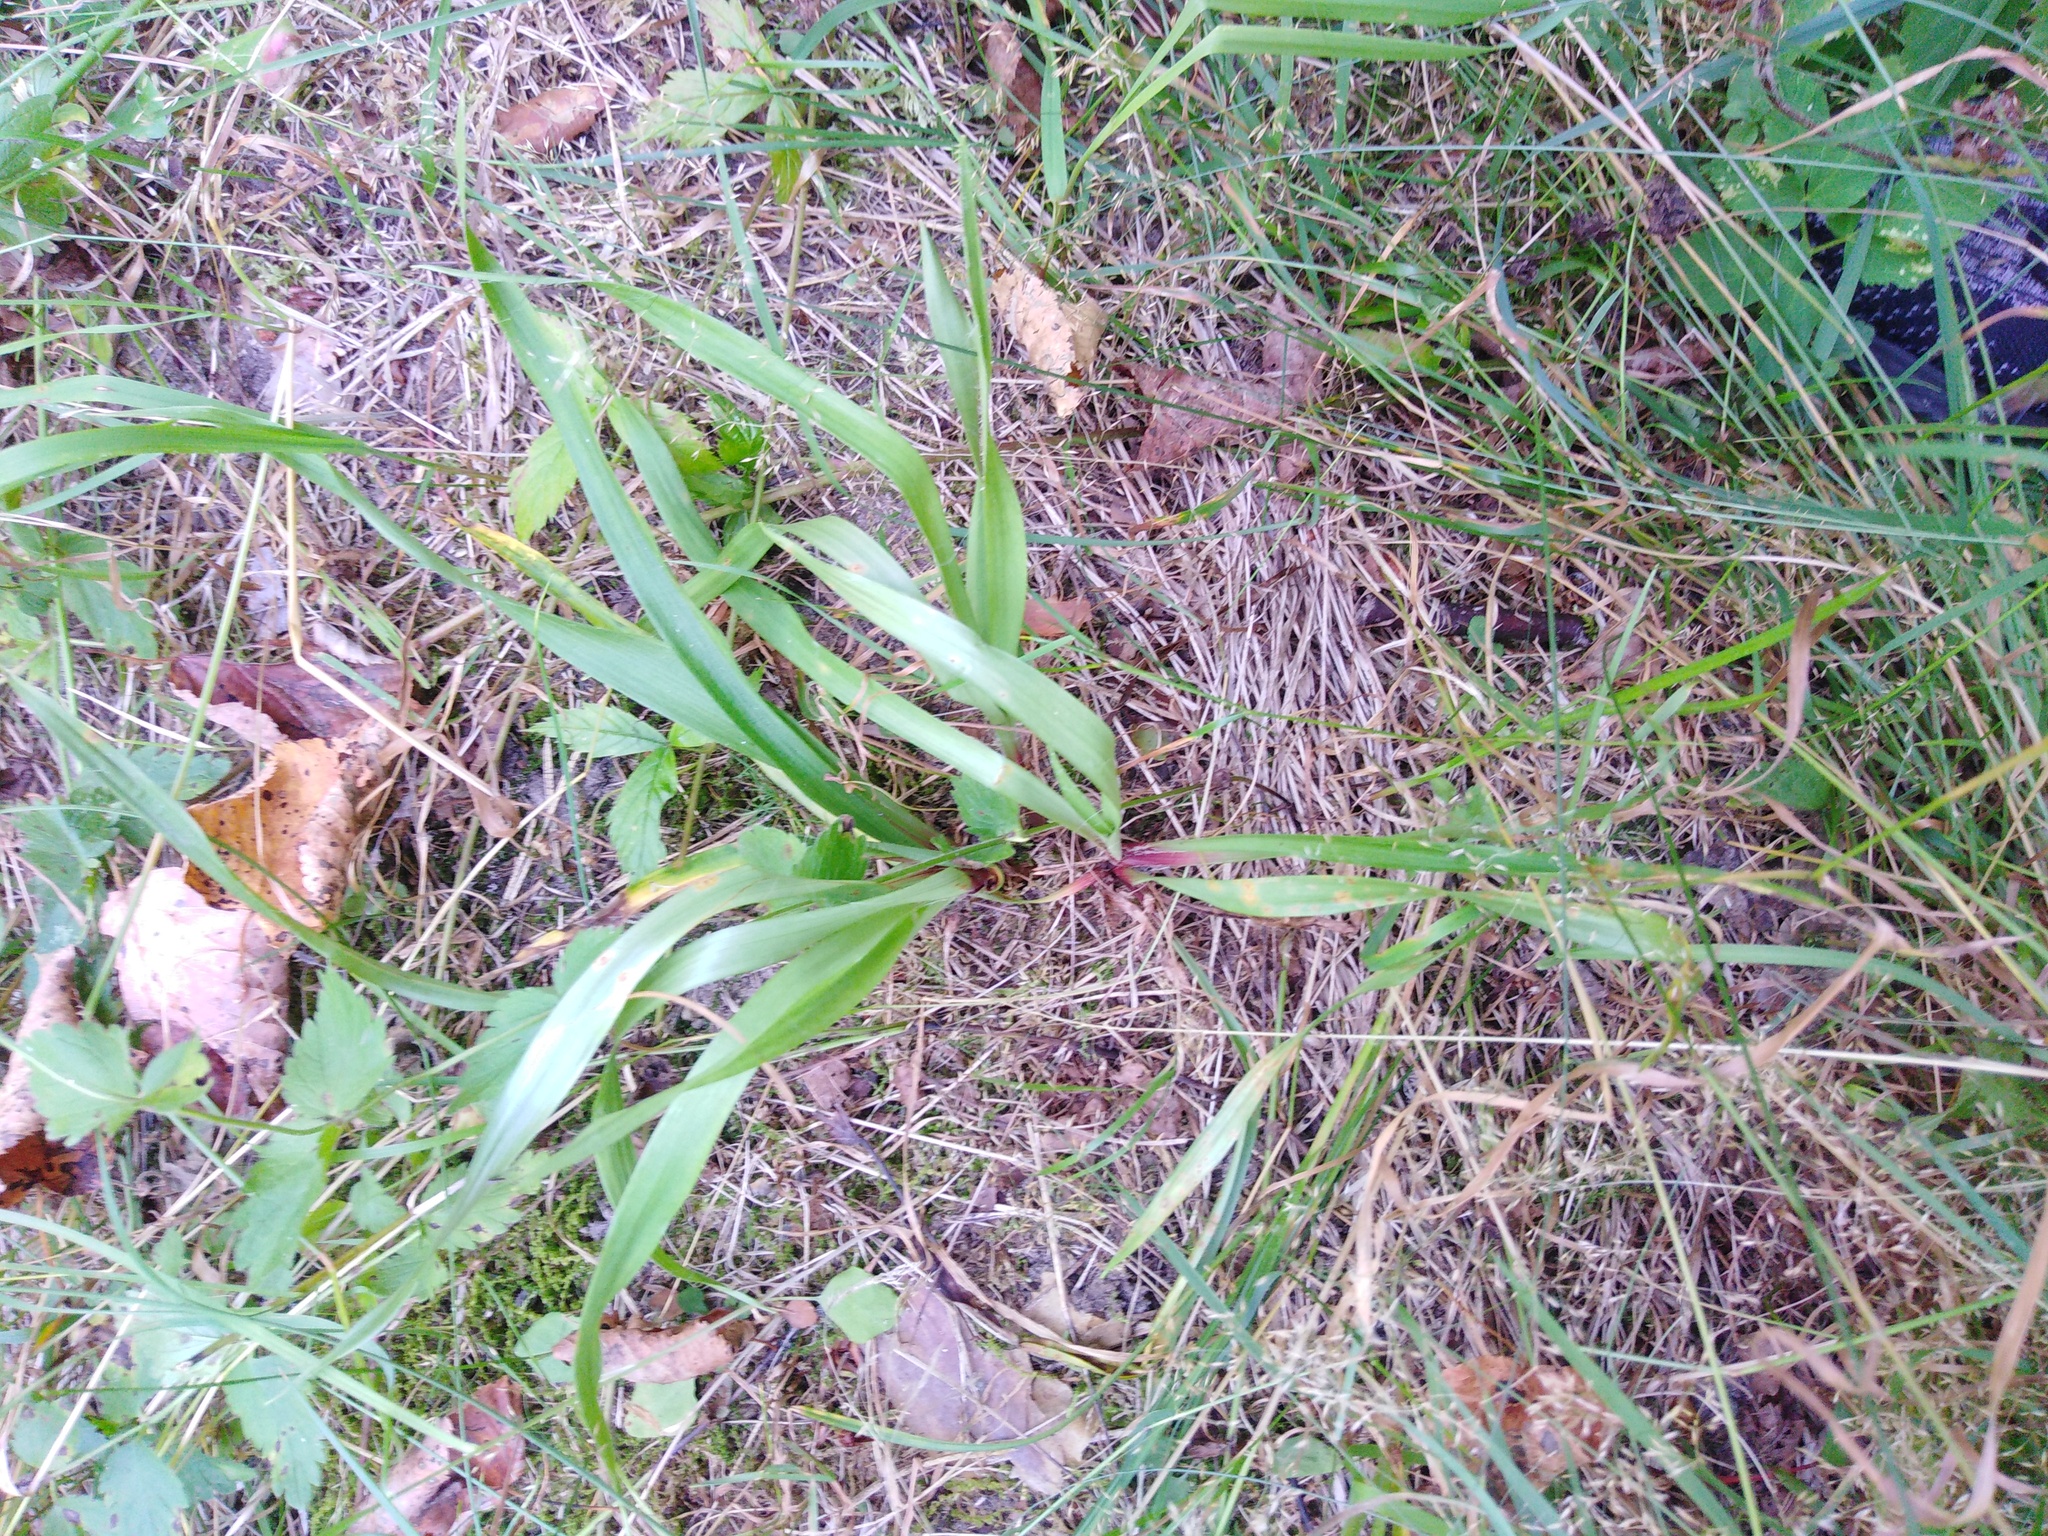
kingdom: Plantae
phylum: Tracheophyta
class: Liliopsida
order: Poales
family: Juncaceae
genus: Luzula
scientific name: Luzula pilosa
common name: Hairy wood-rush
